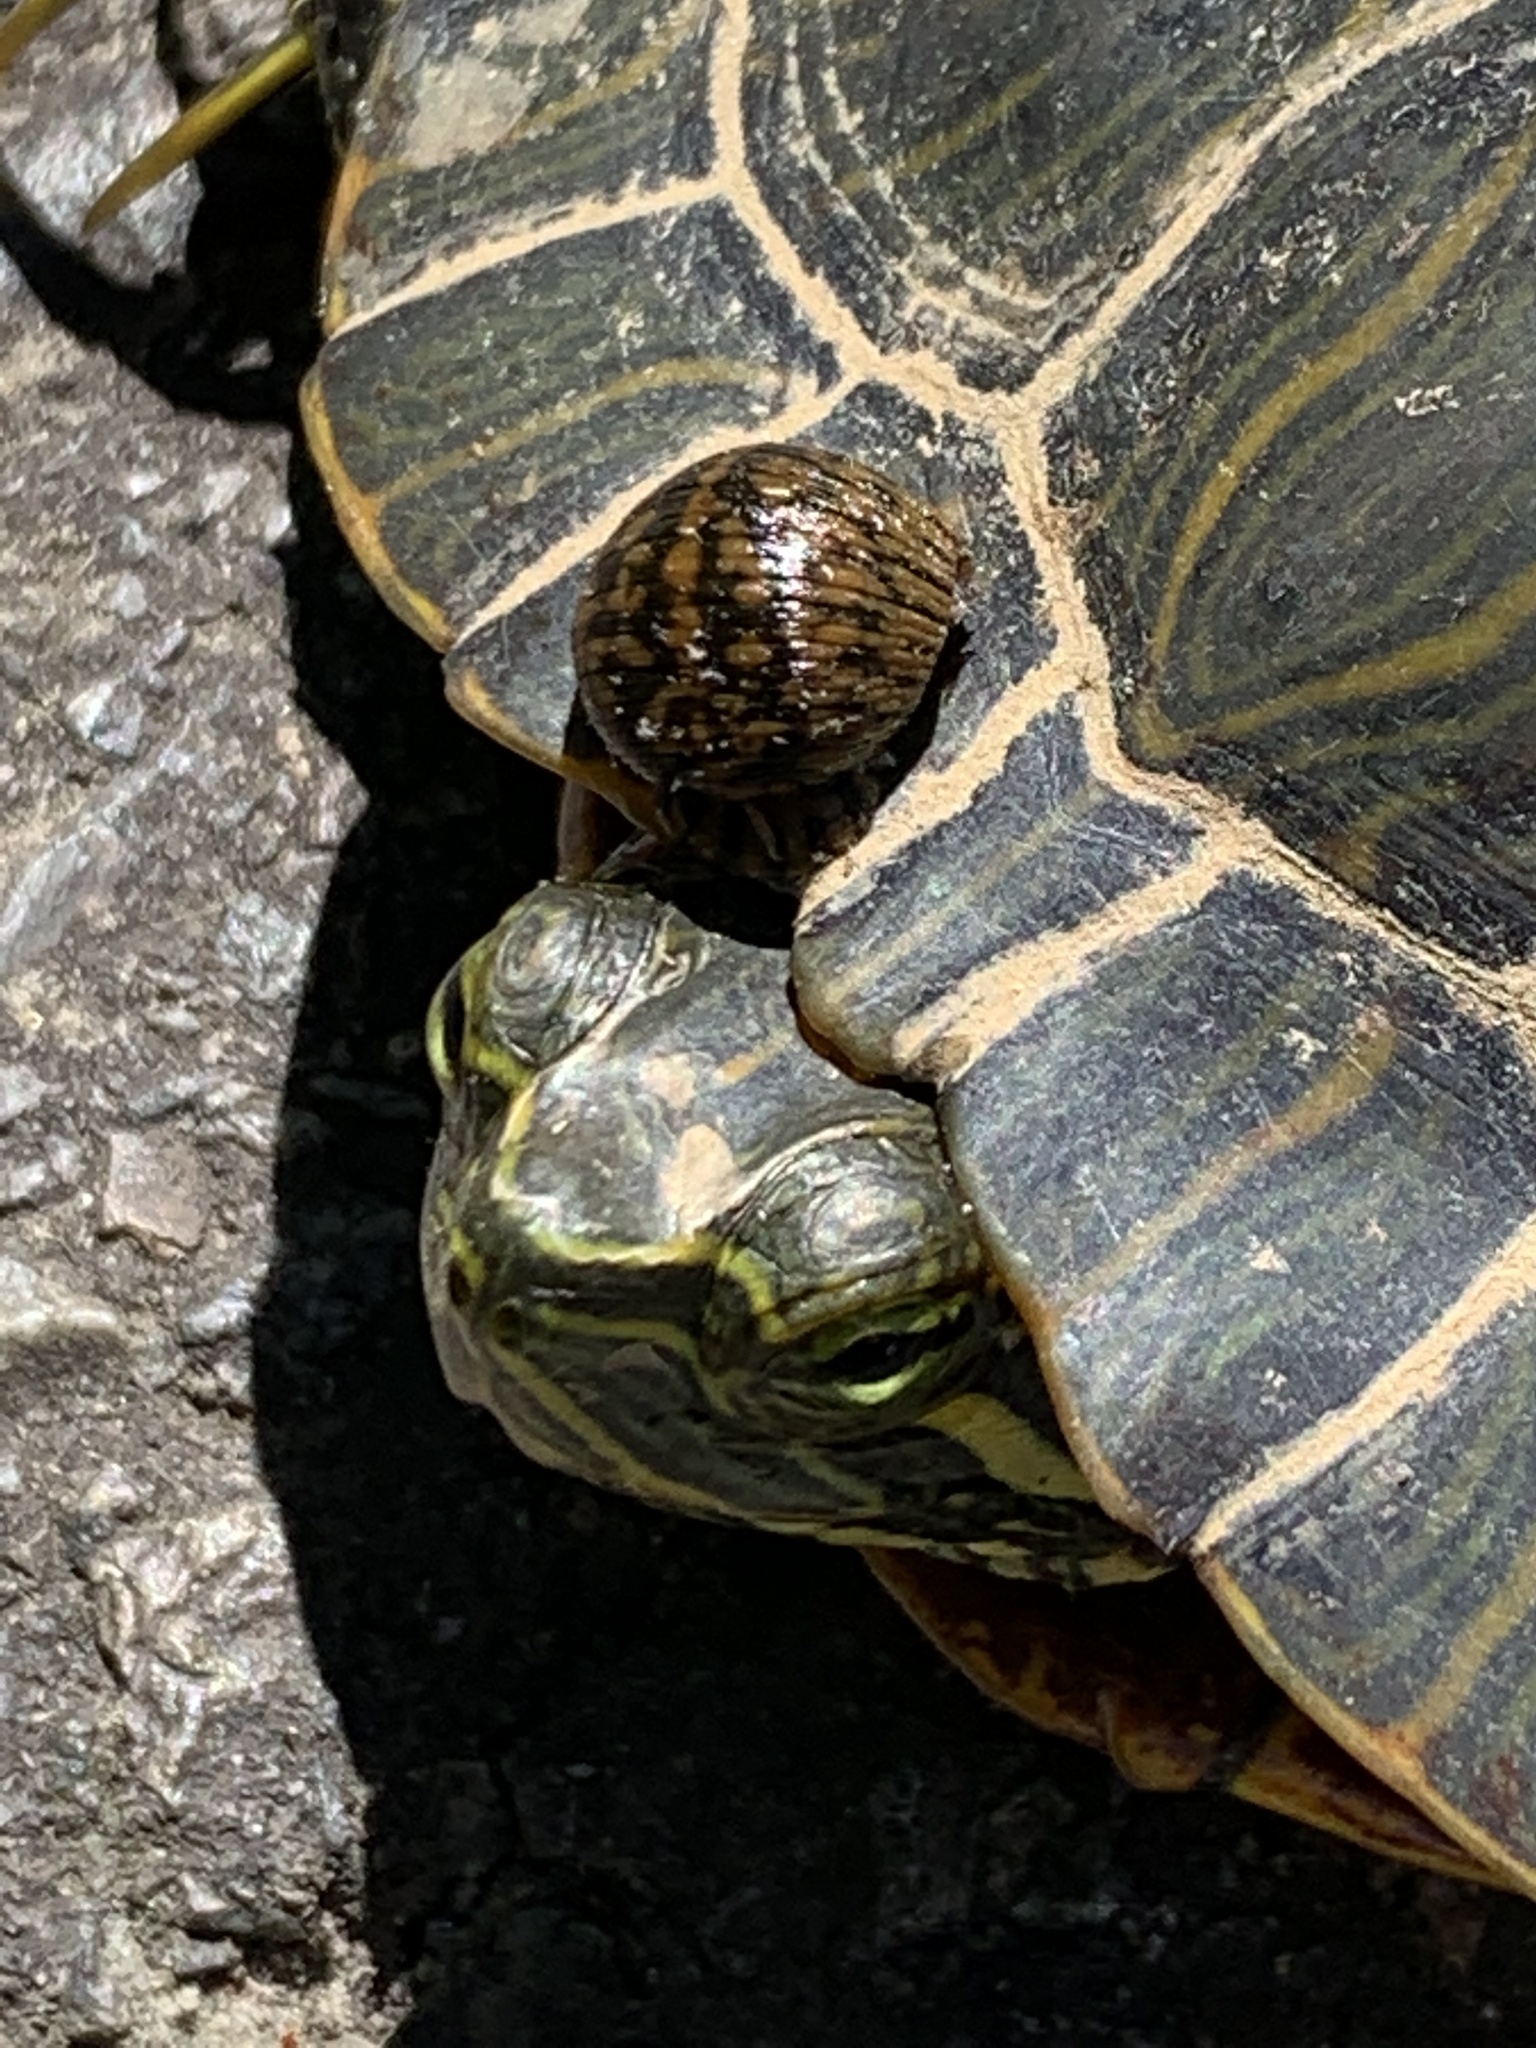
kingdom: Animalia
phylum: Chordata
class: Testudines
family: Emydidae
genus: Trachemys
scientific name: Trachemys scripta
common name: Slider
